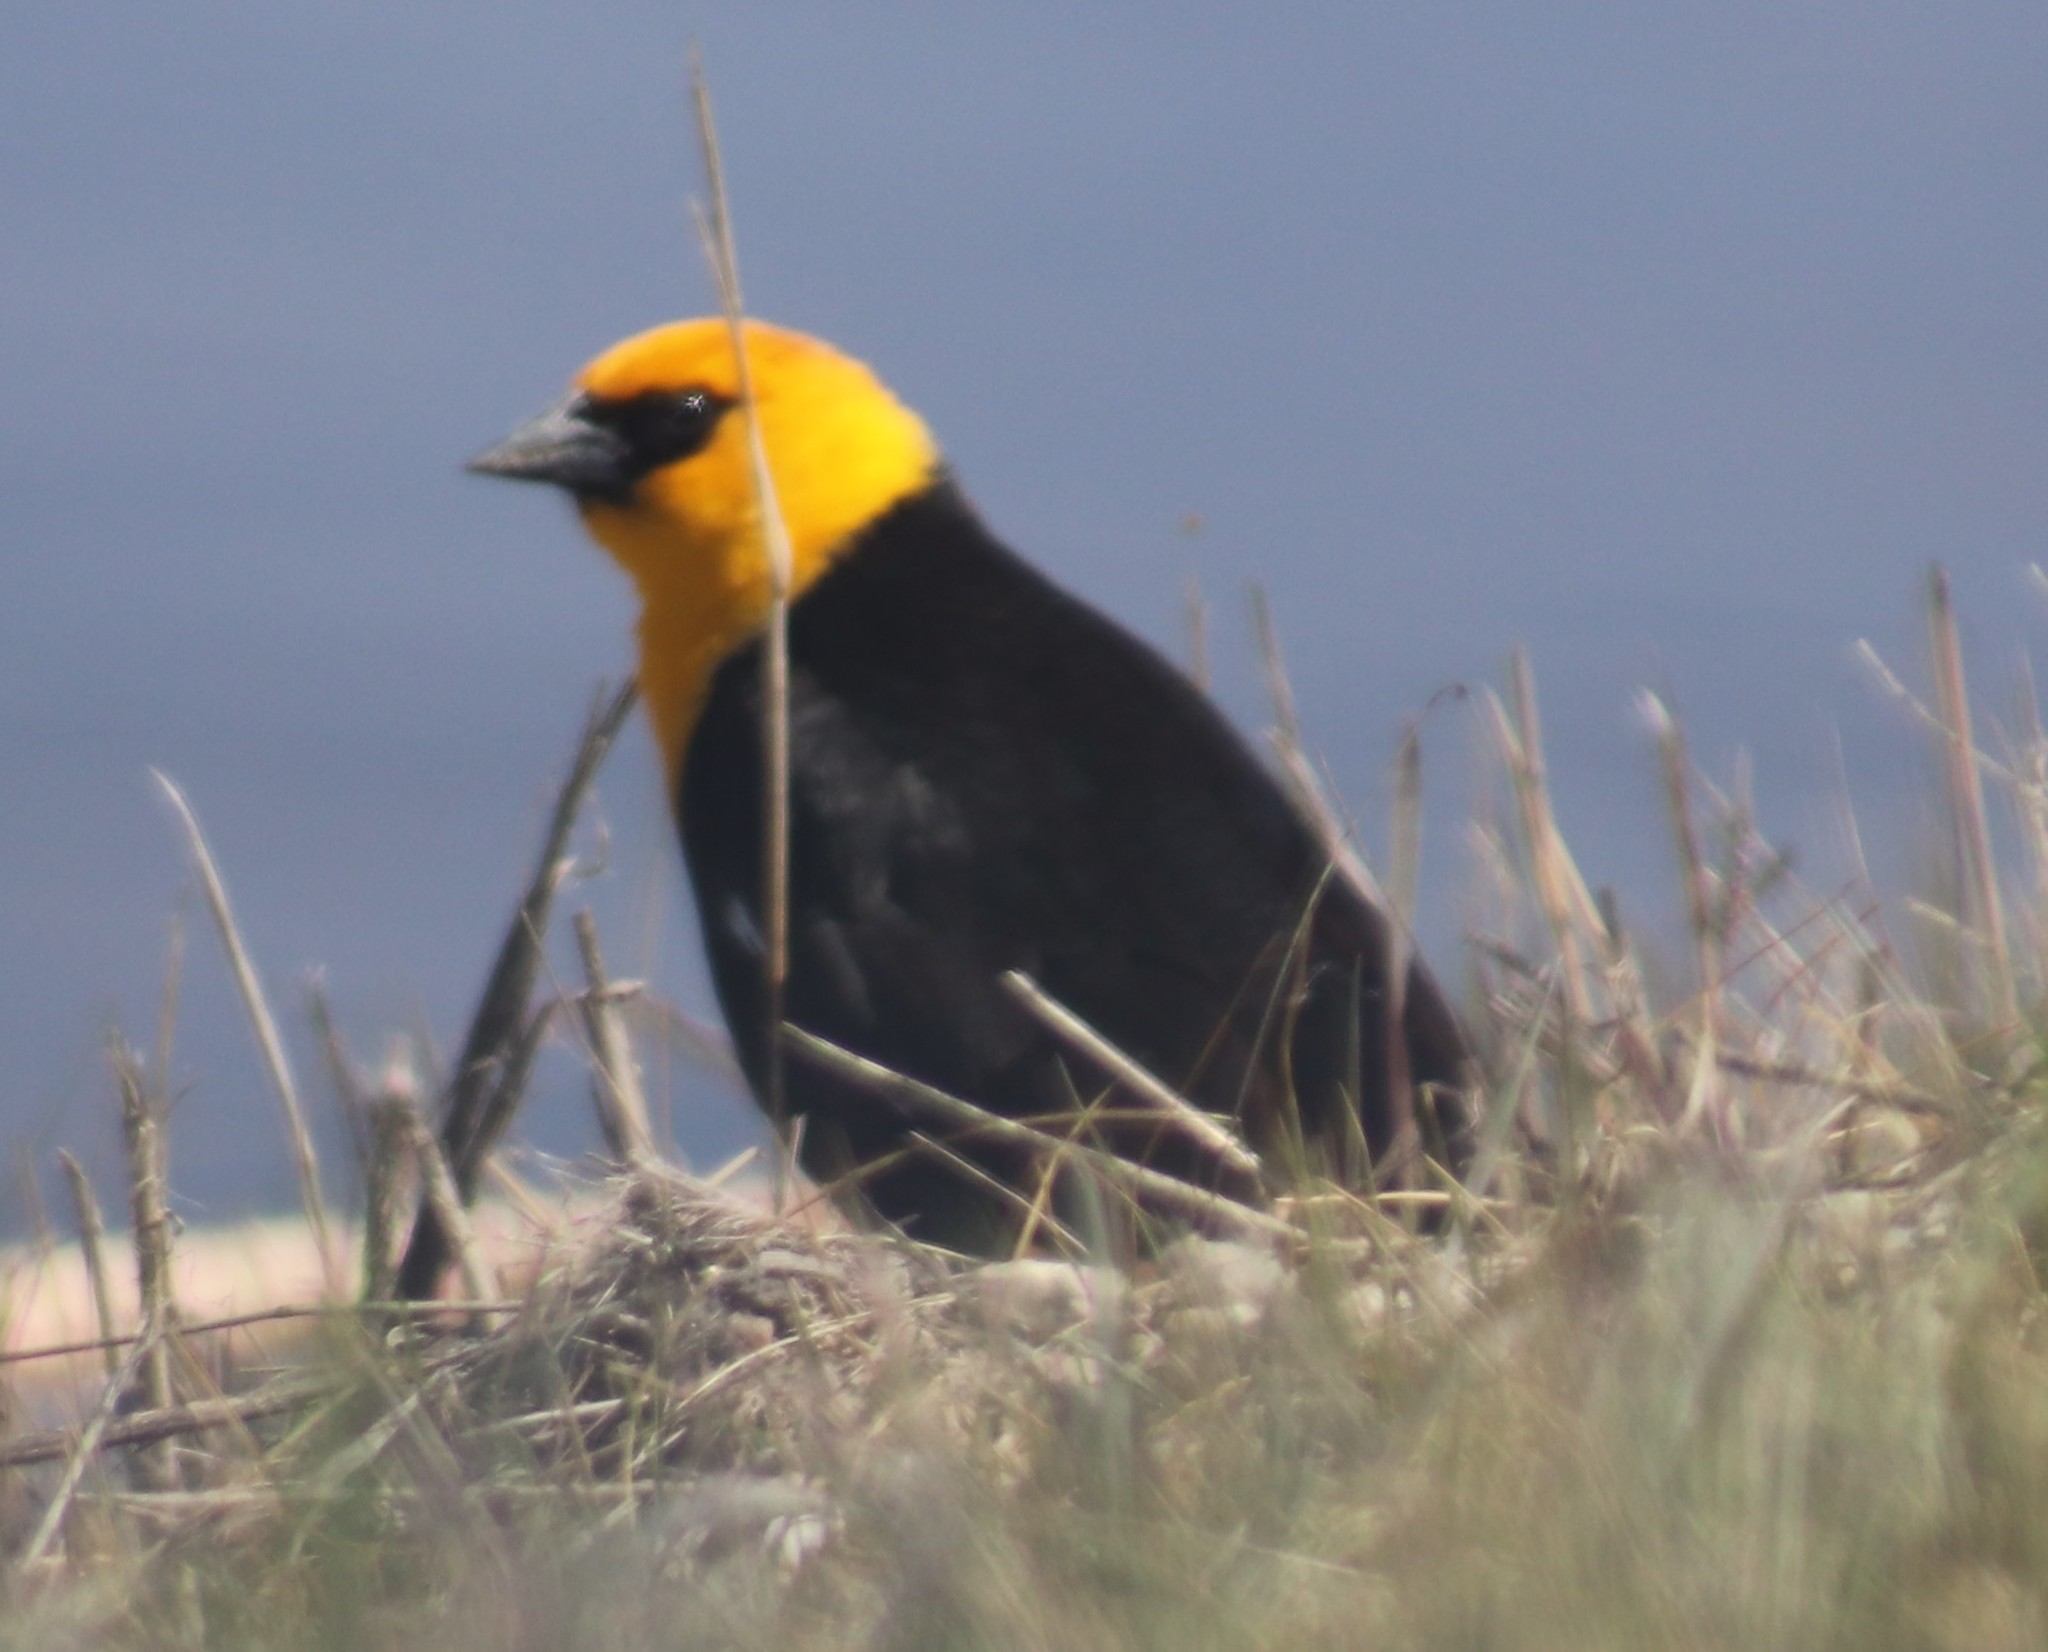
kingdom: Animalia
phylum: Chordata
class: Aves
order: Passeriformes
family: Icteridae
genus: Xanthocephalus
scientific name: Xanthocephalus xanthocephalus
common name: Yellow-headed blackbird
